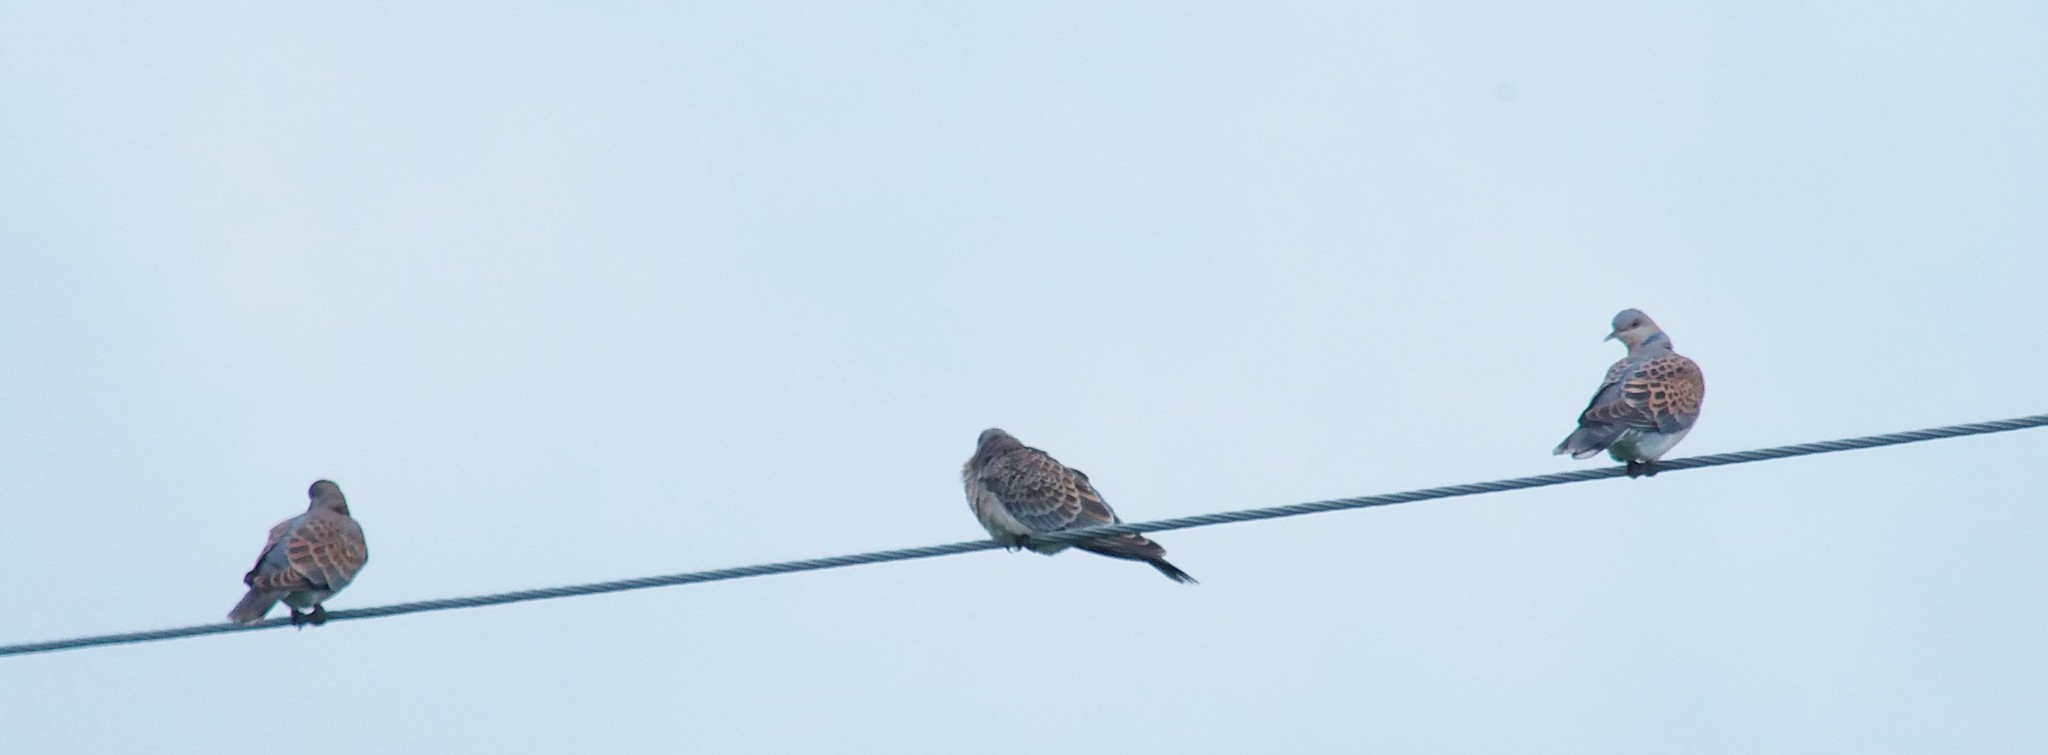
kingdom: Animalia
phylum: Chordata
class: Aves
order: Columbiformes
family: Columbidae
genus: Streptopelia
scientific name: Streptopelia orientalis
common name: Oriental turtle dove
